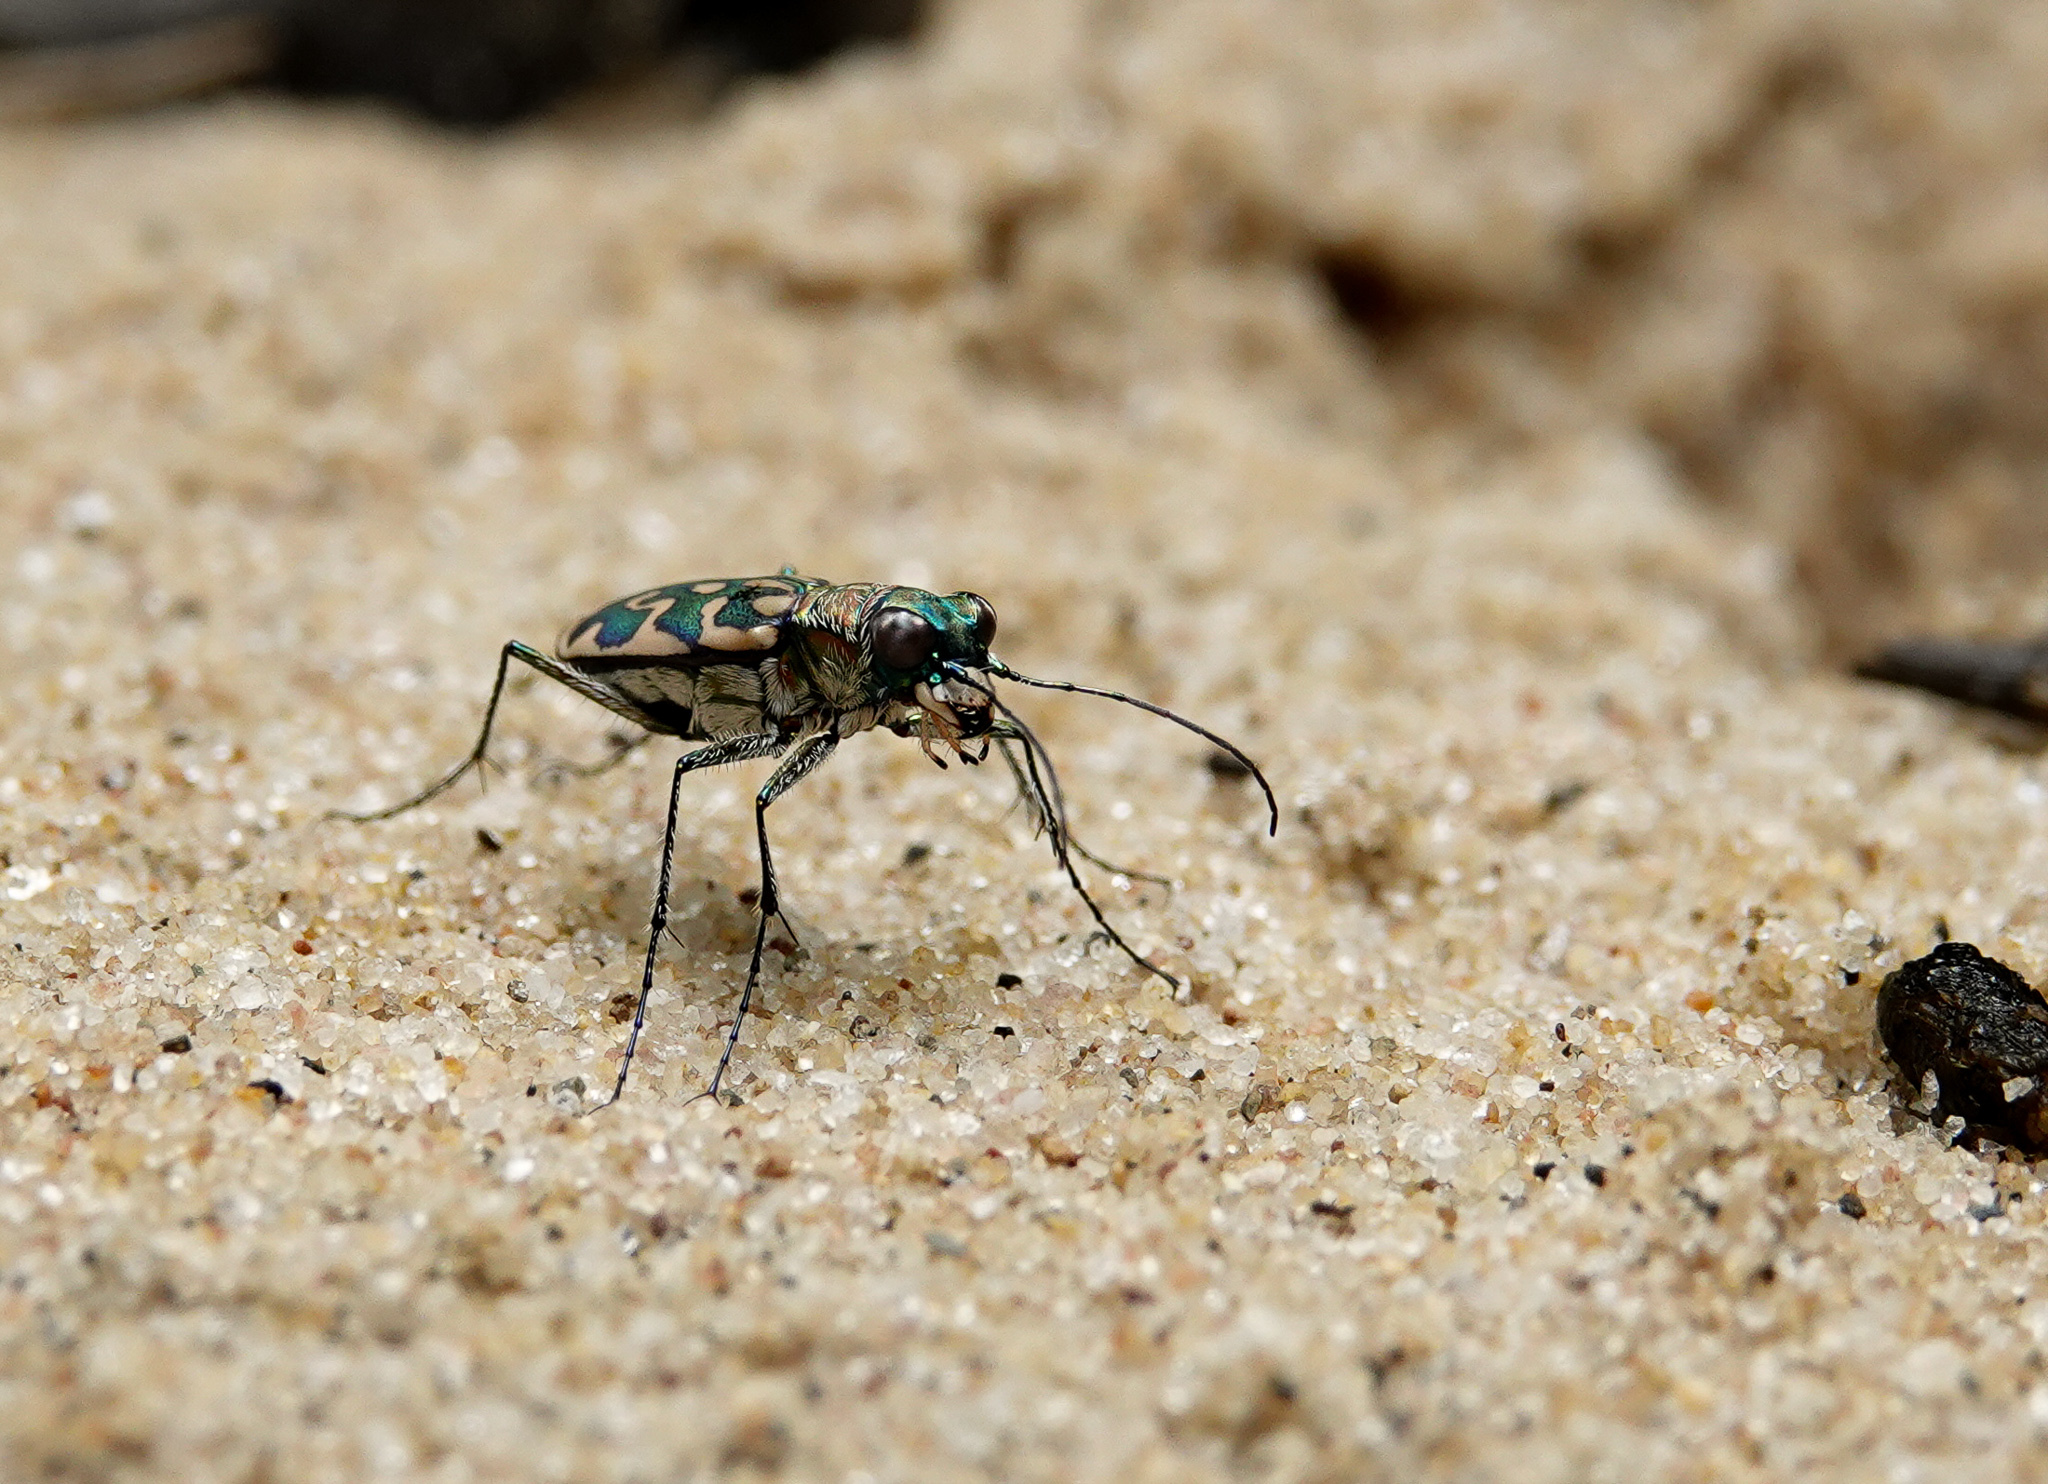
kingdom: Animalia
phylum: Arthropoda
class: Insecta
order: Coleoptera
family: Carabidae
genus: Lophyra
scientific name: Lophyra cancellata
